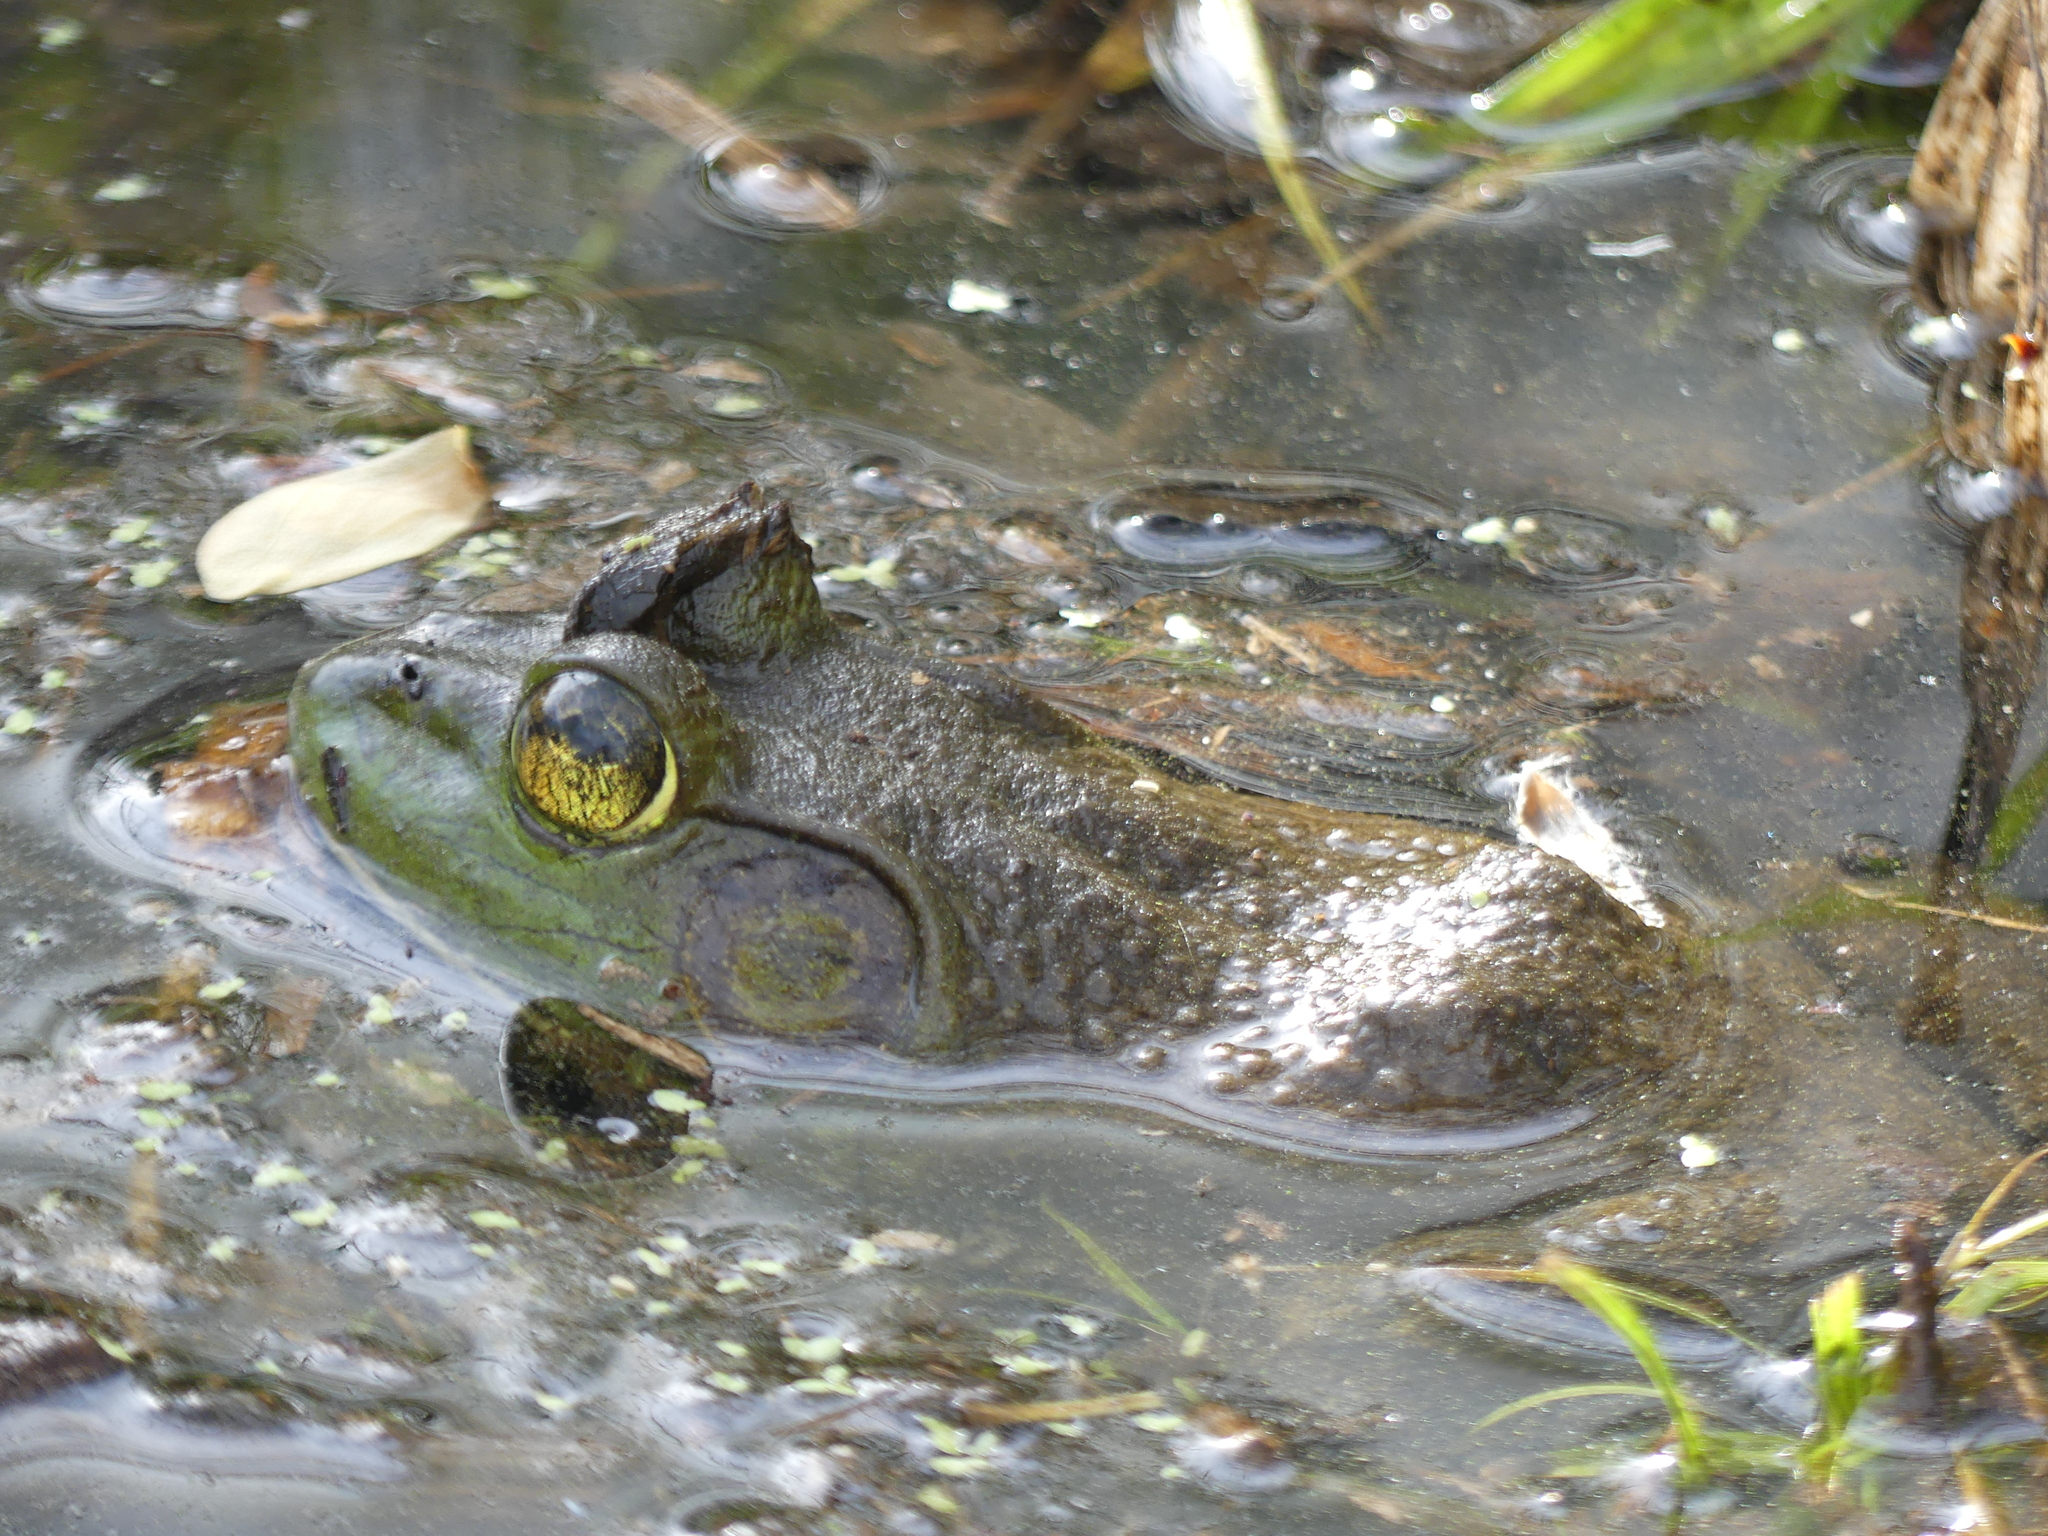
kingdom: Animalia
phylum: Chordata
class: Amphibia
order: Anura
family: Ranidae
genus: Lithobates
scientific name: Lithobates catesbeianus
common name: American bullfrog
